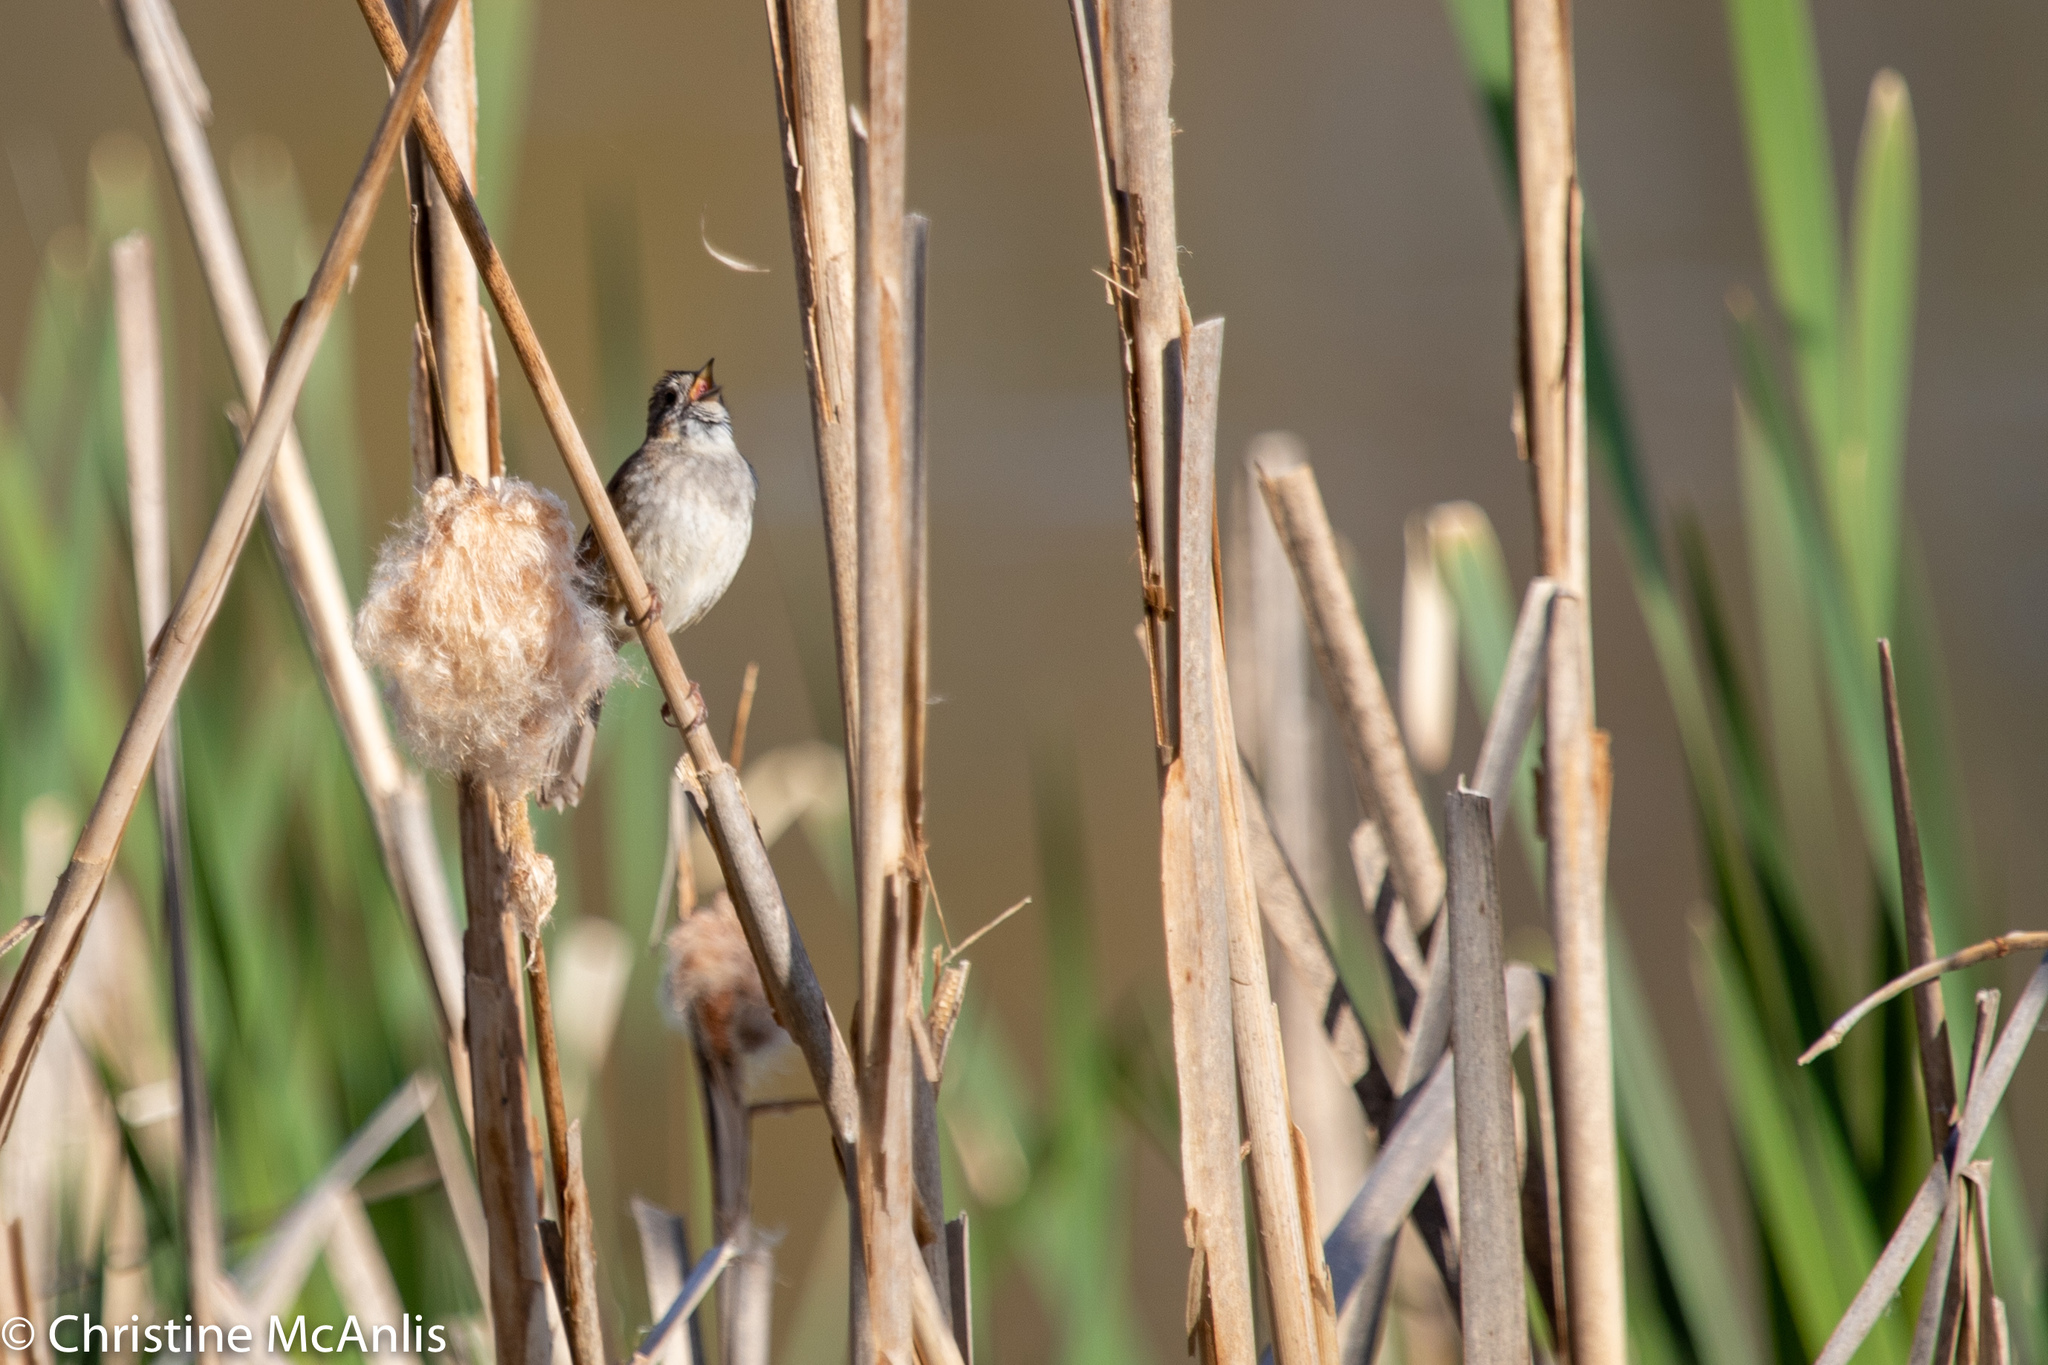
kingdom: Animalia
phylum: Chordata
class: Aves
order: Passeriformes
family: Passerellidae
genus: Melospiza
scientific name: Melospiza georgiana
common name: Swamp sparrow
